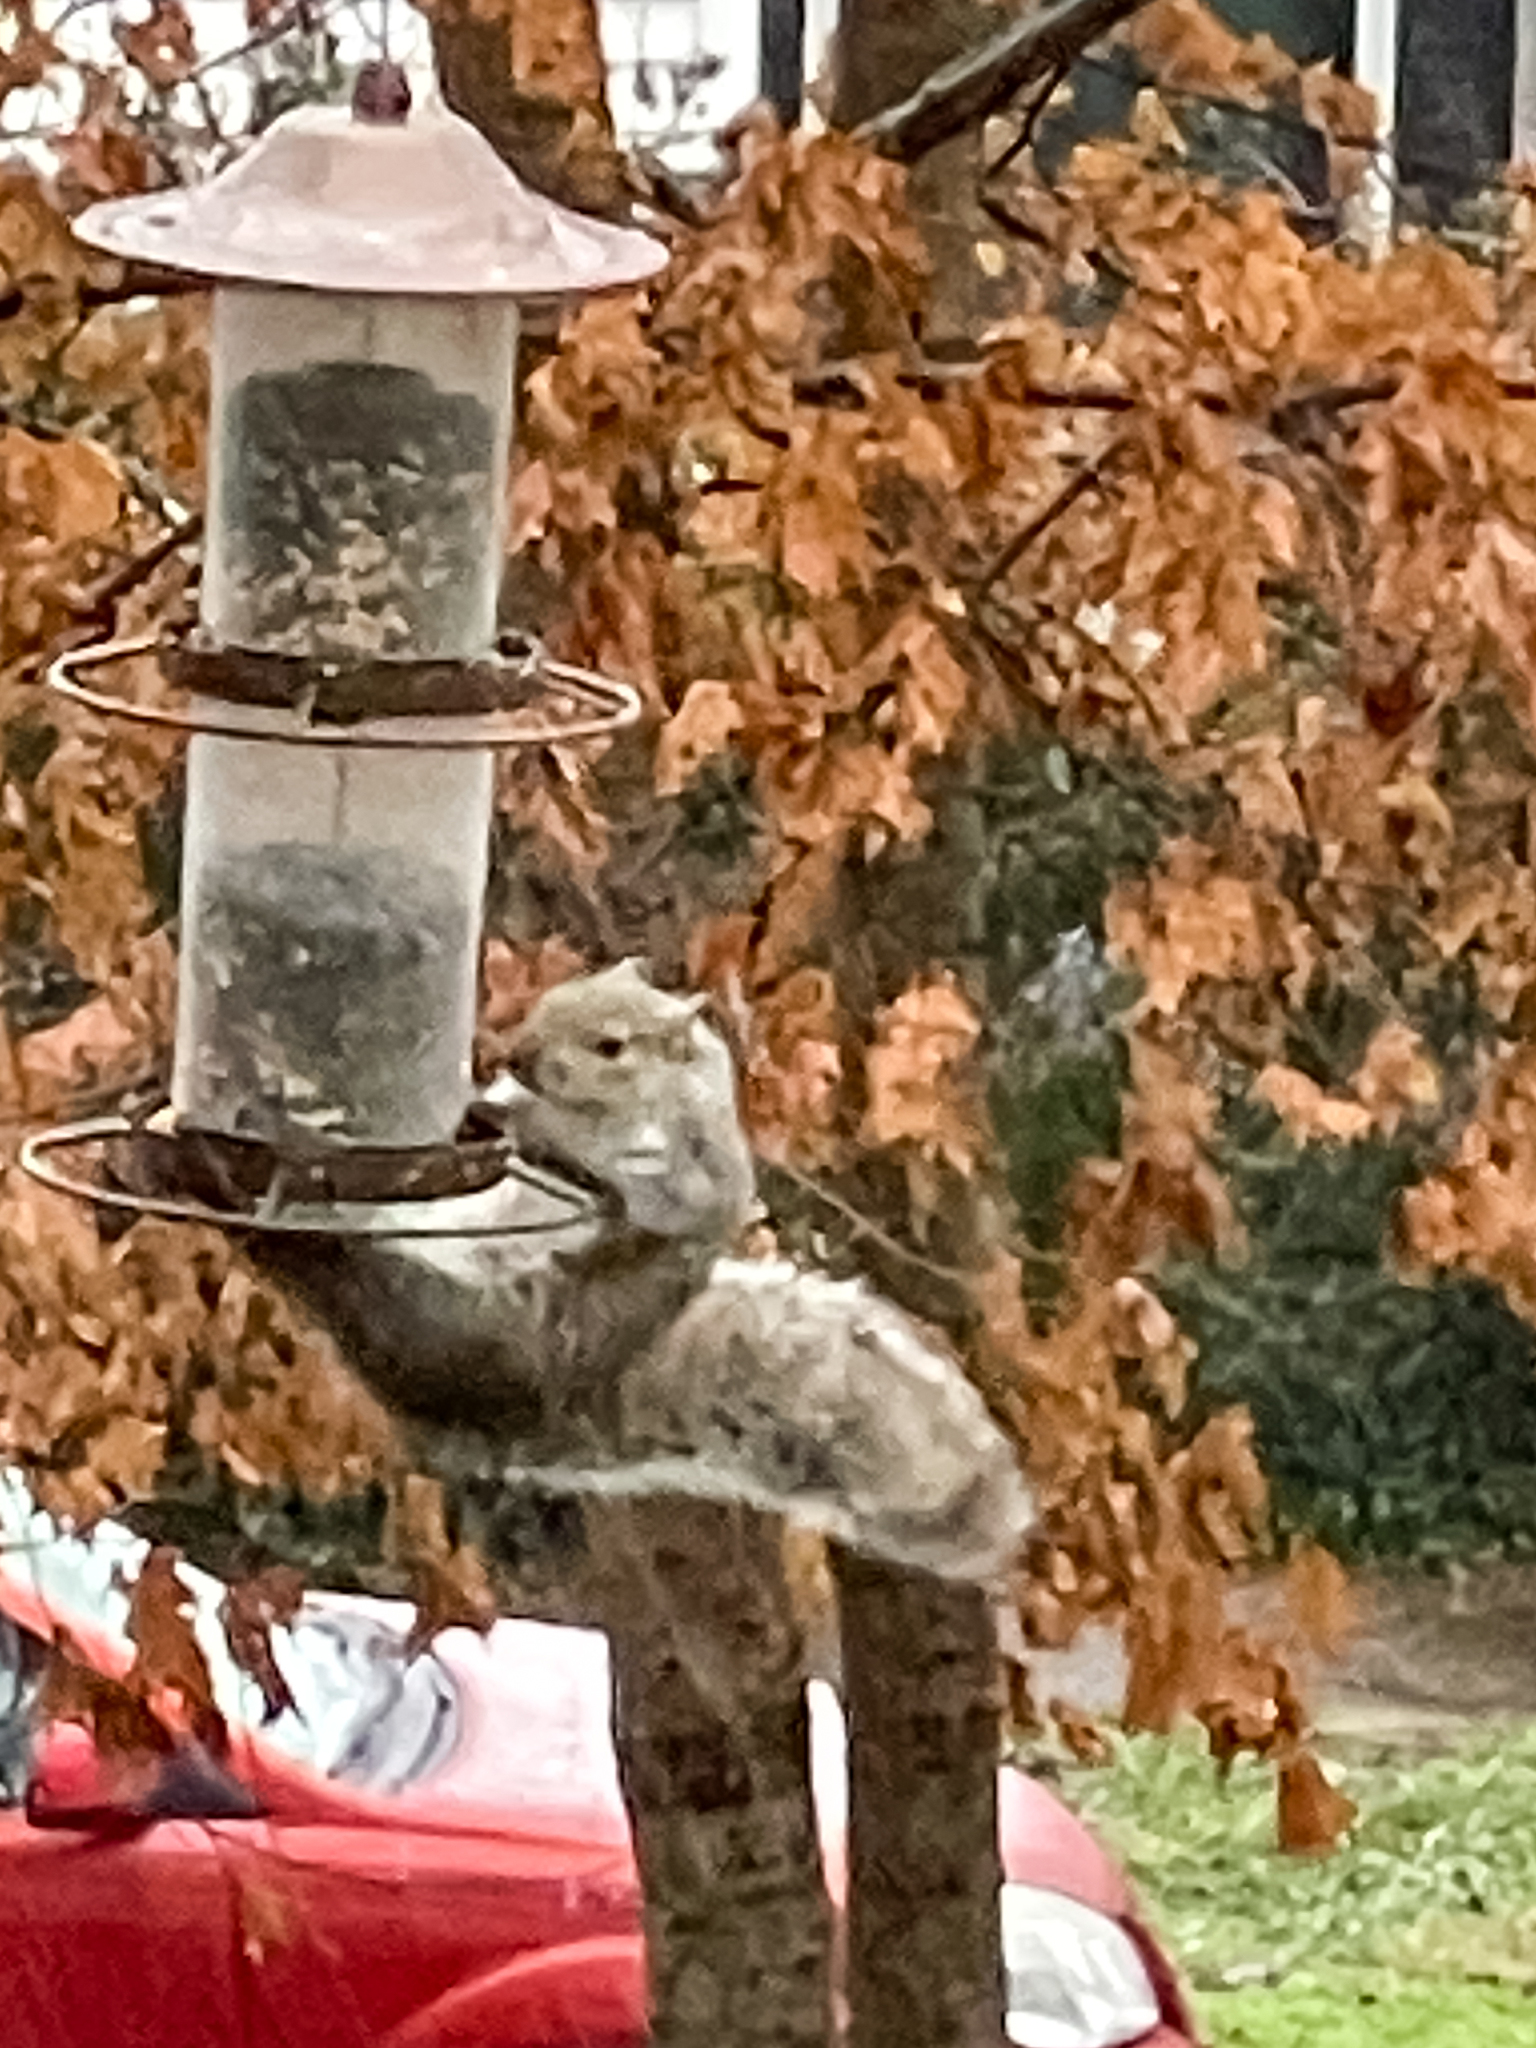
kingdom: Animalia
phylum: Chordata
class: Mammalia
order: Rodentia
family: Sciuridae
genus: Sciurus
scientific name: Sciurus carolinensis
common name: Eastern gray squirrel
